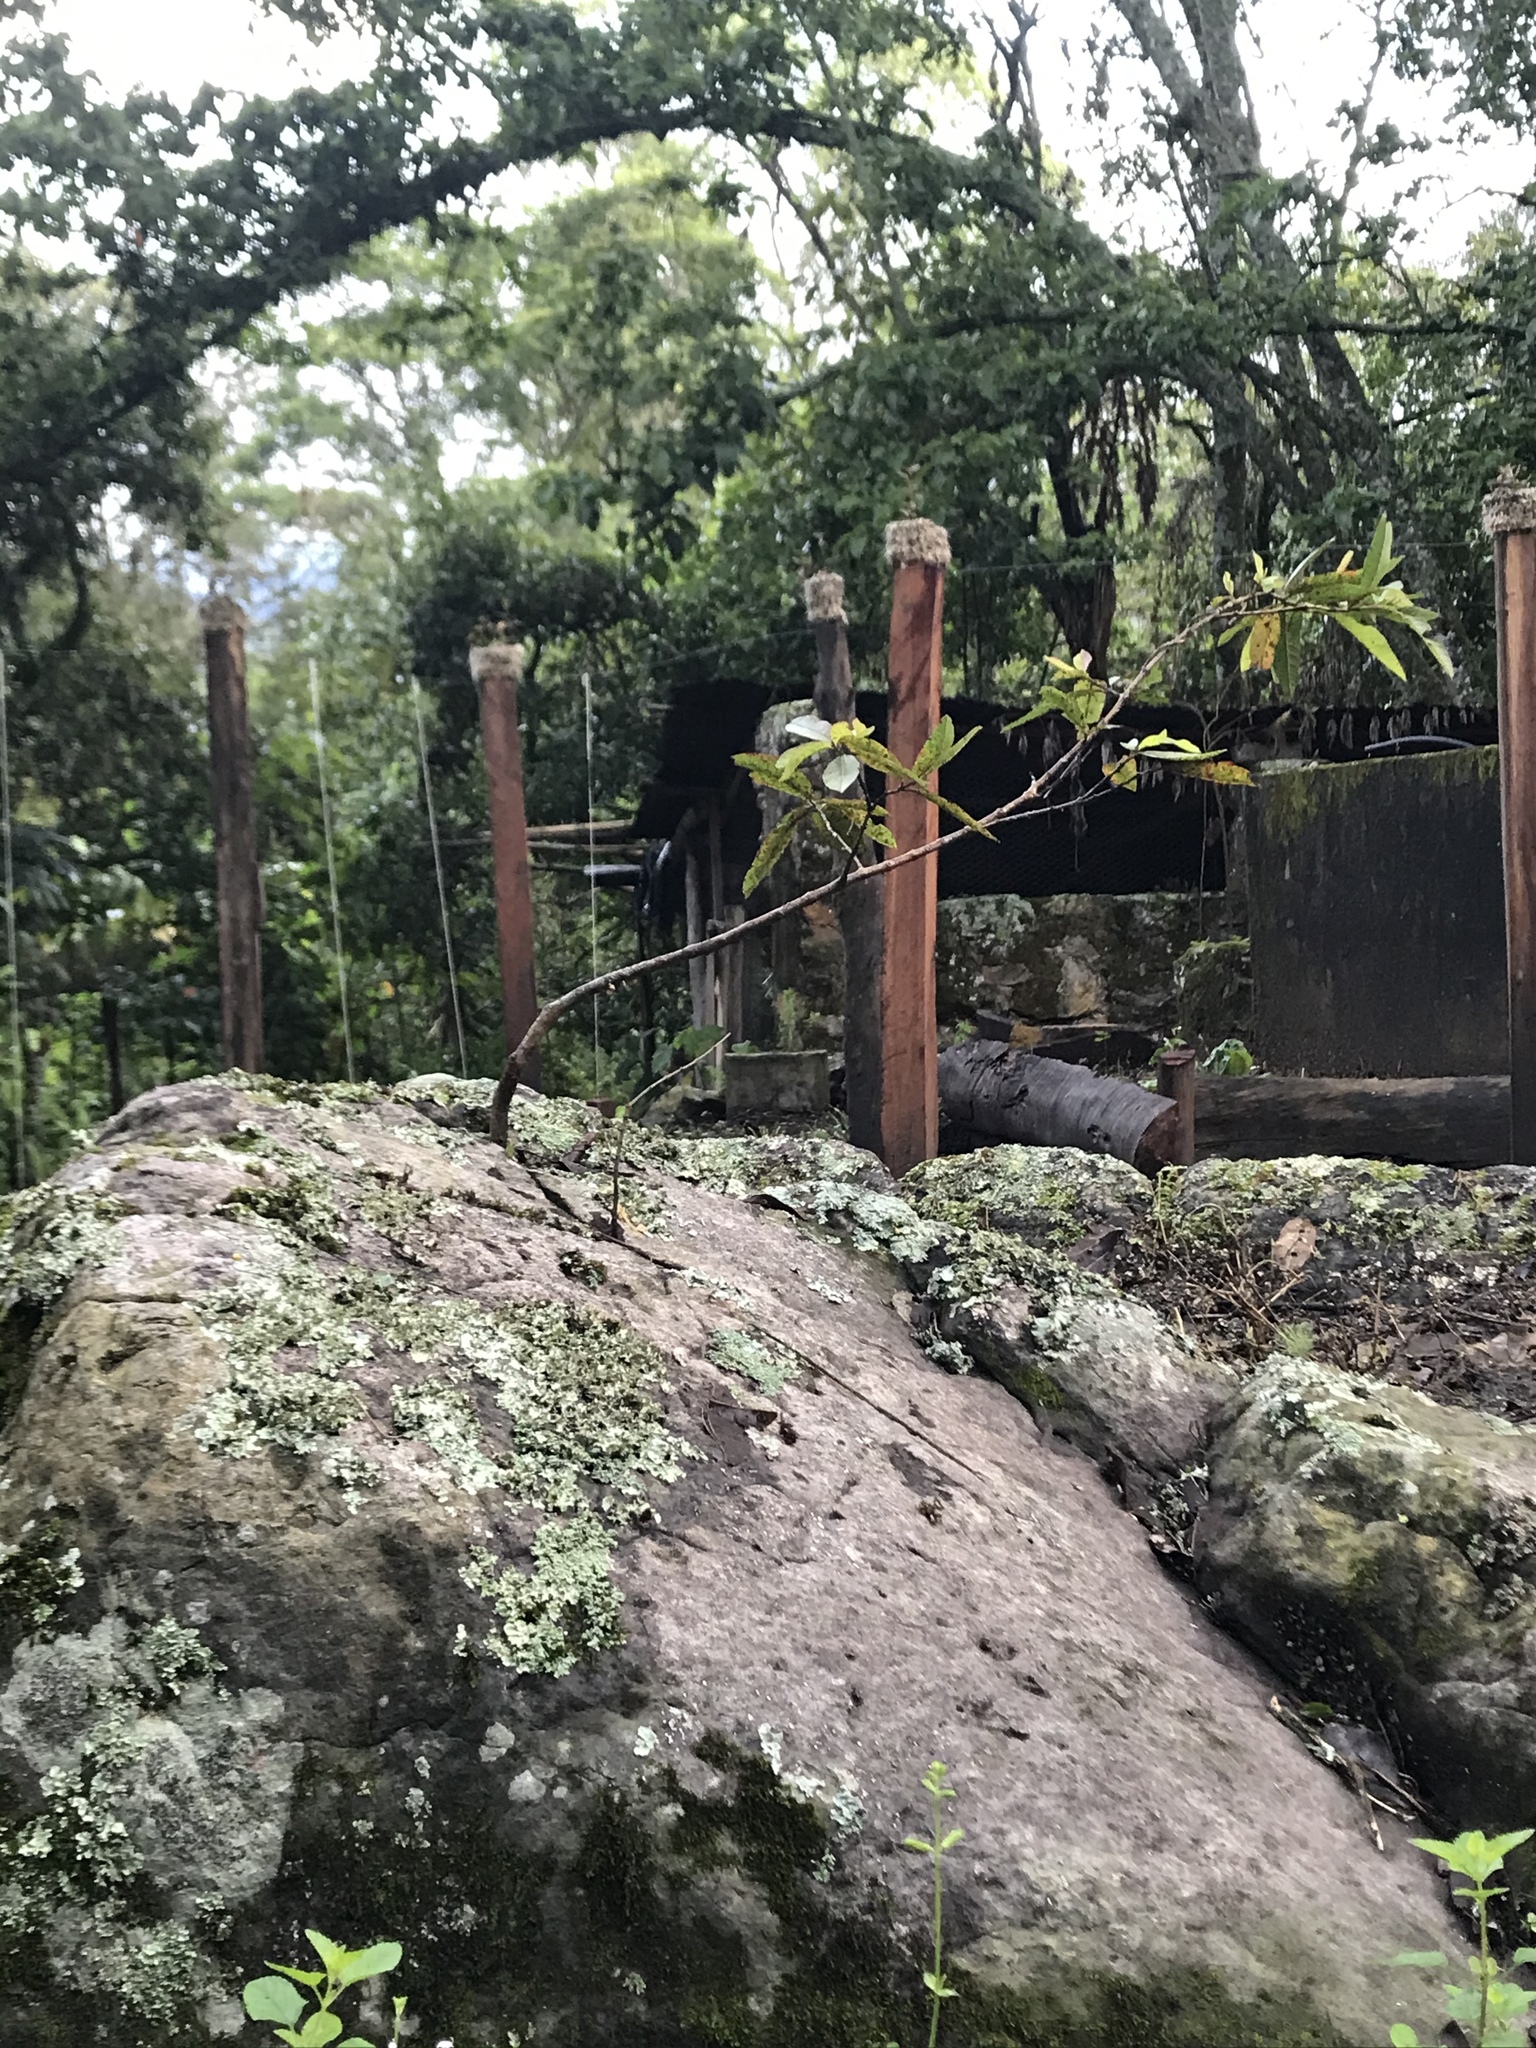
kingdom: Plantae
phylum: Tracheophyta
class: Magnoliopsida
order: Myrtales
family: Myrtaceae
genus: Psidium
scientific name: Psidium guajava
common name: Guava
